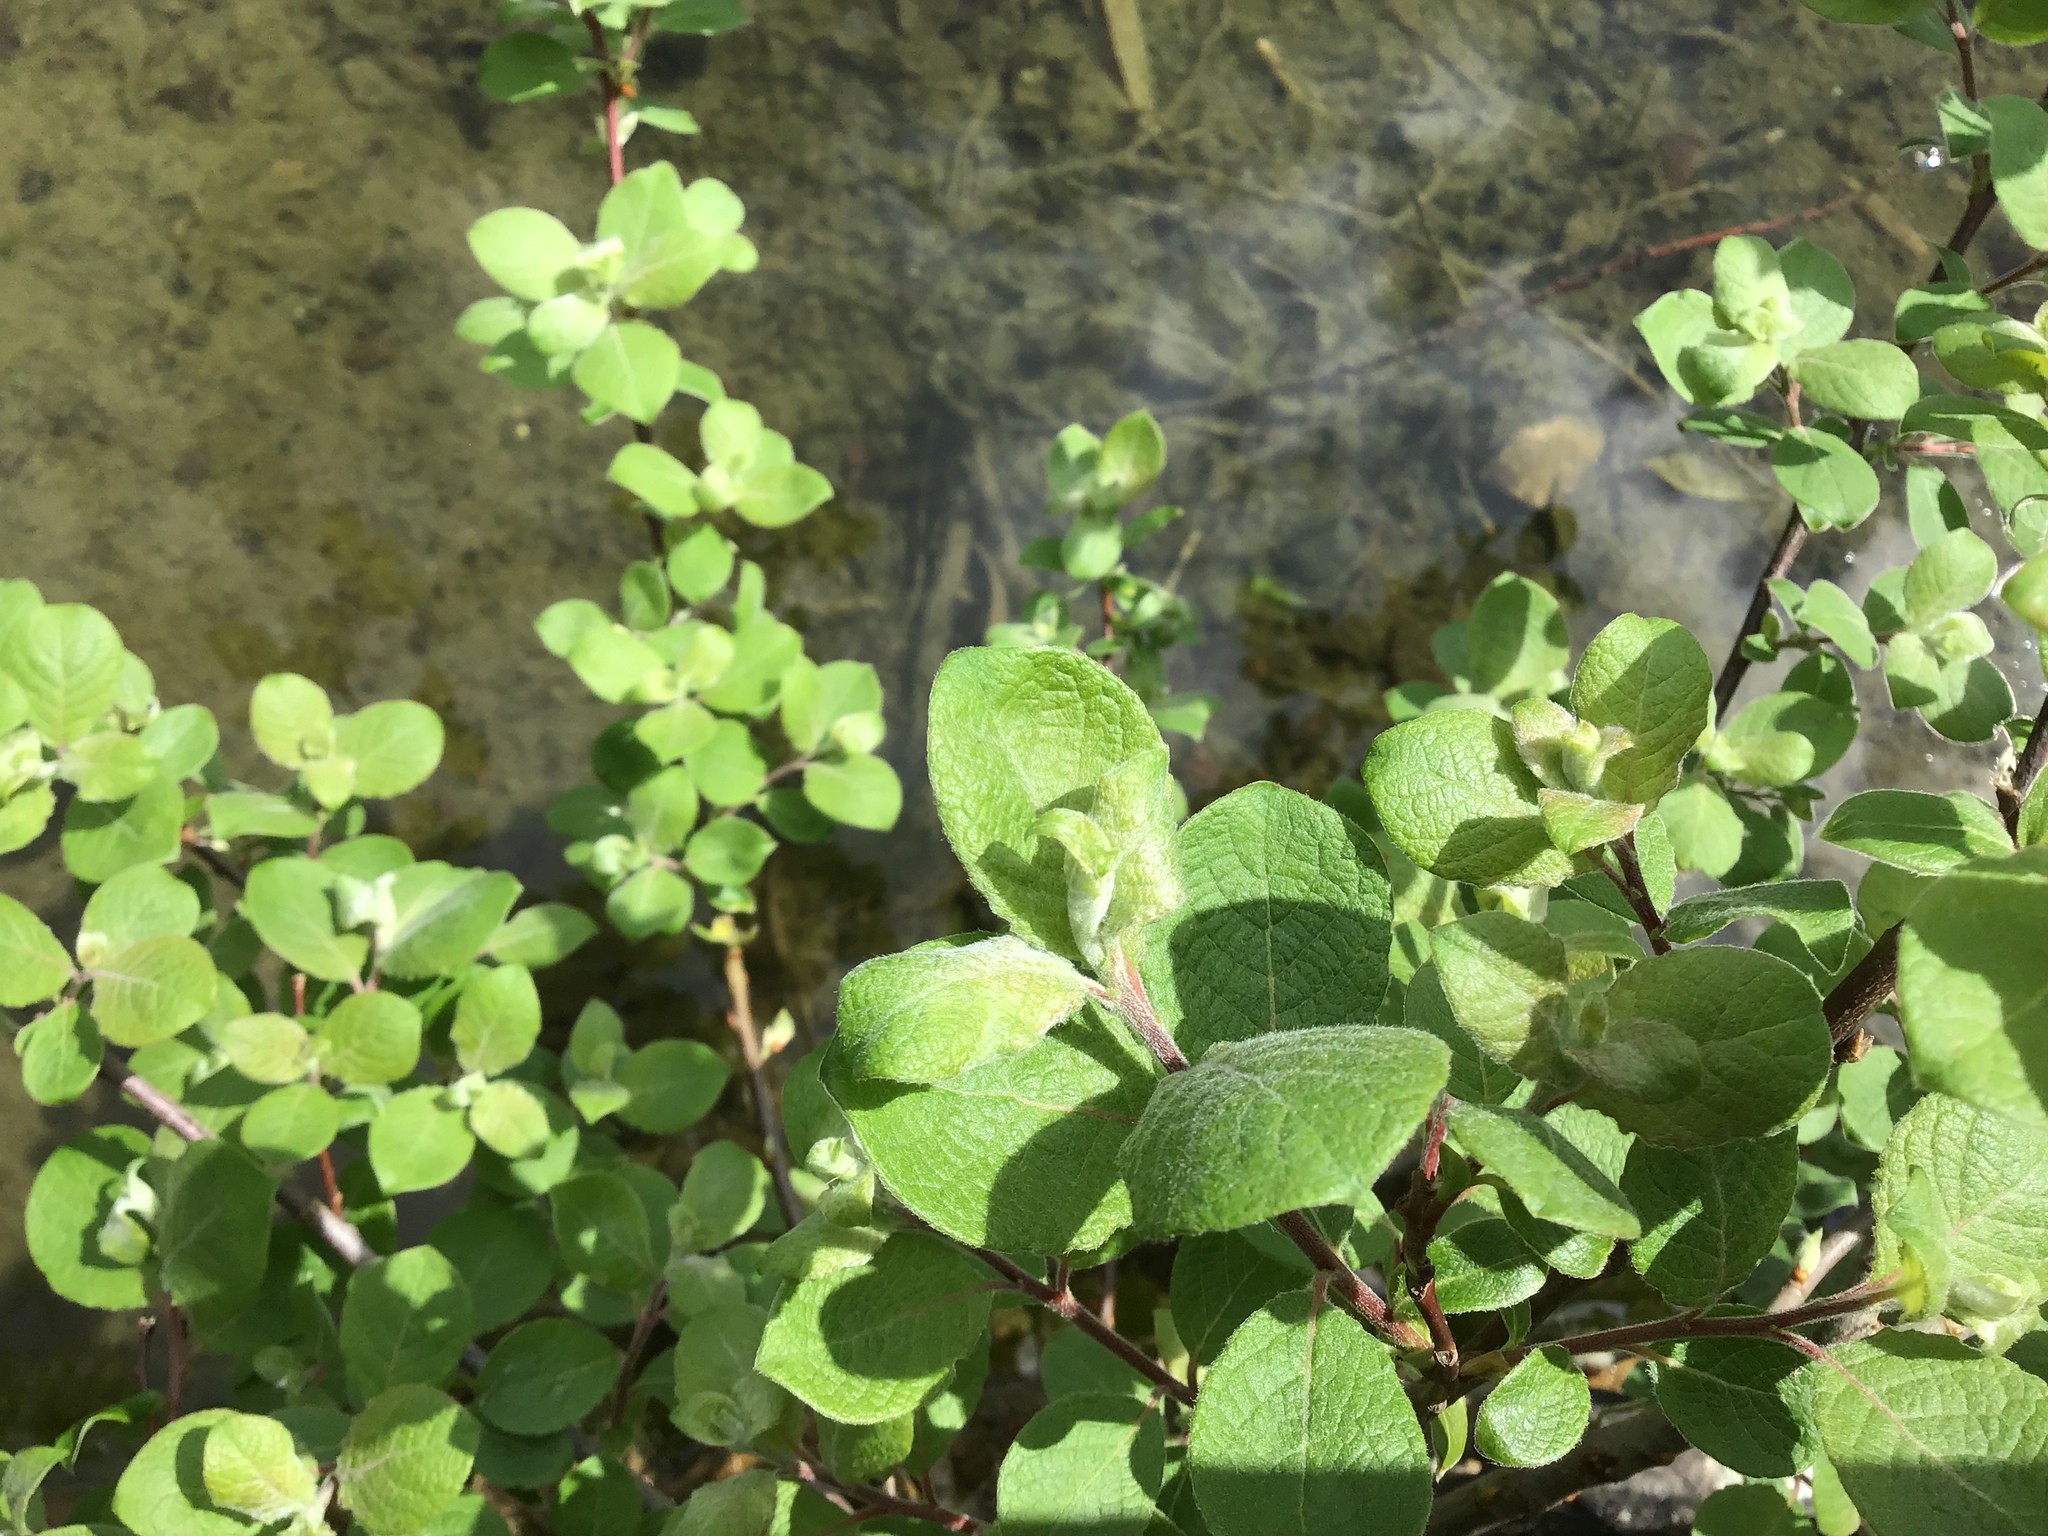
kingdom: Plantae
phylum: Tracheophyta
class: Magnoliopsida
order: Malpighiales
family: Salicaceae
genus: Salix
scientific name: Salix caprea
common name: Goat willow
